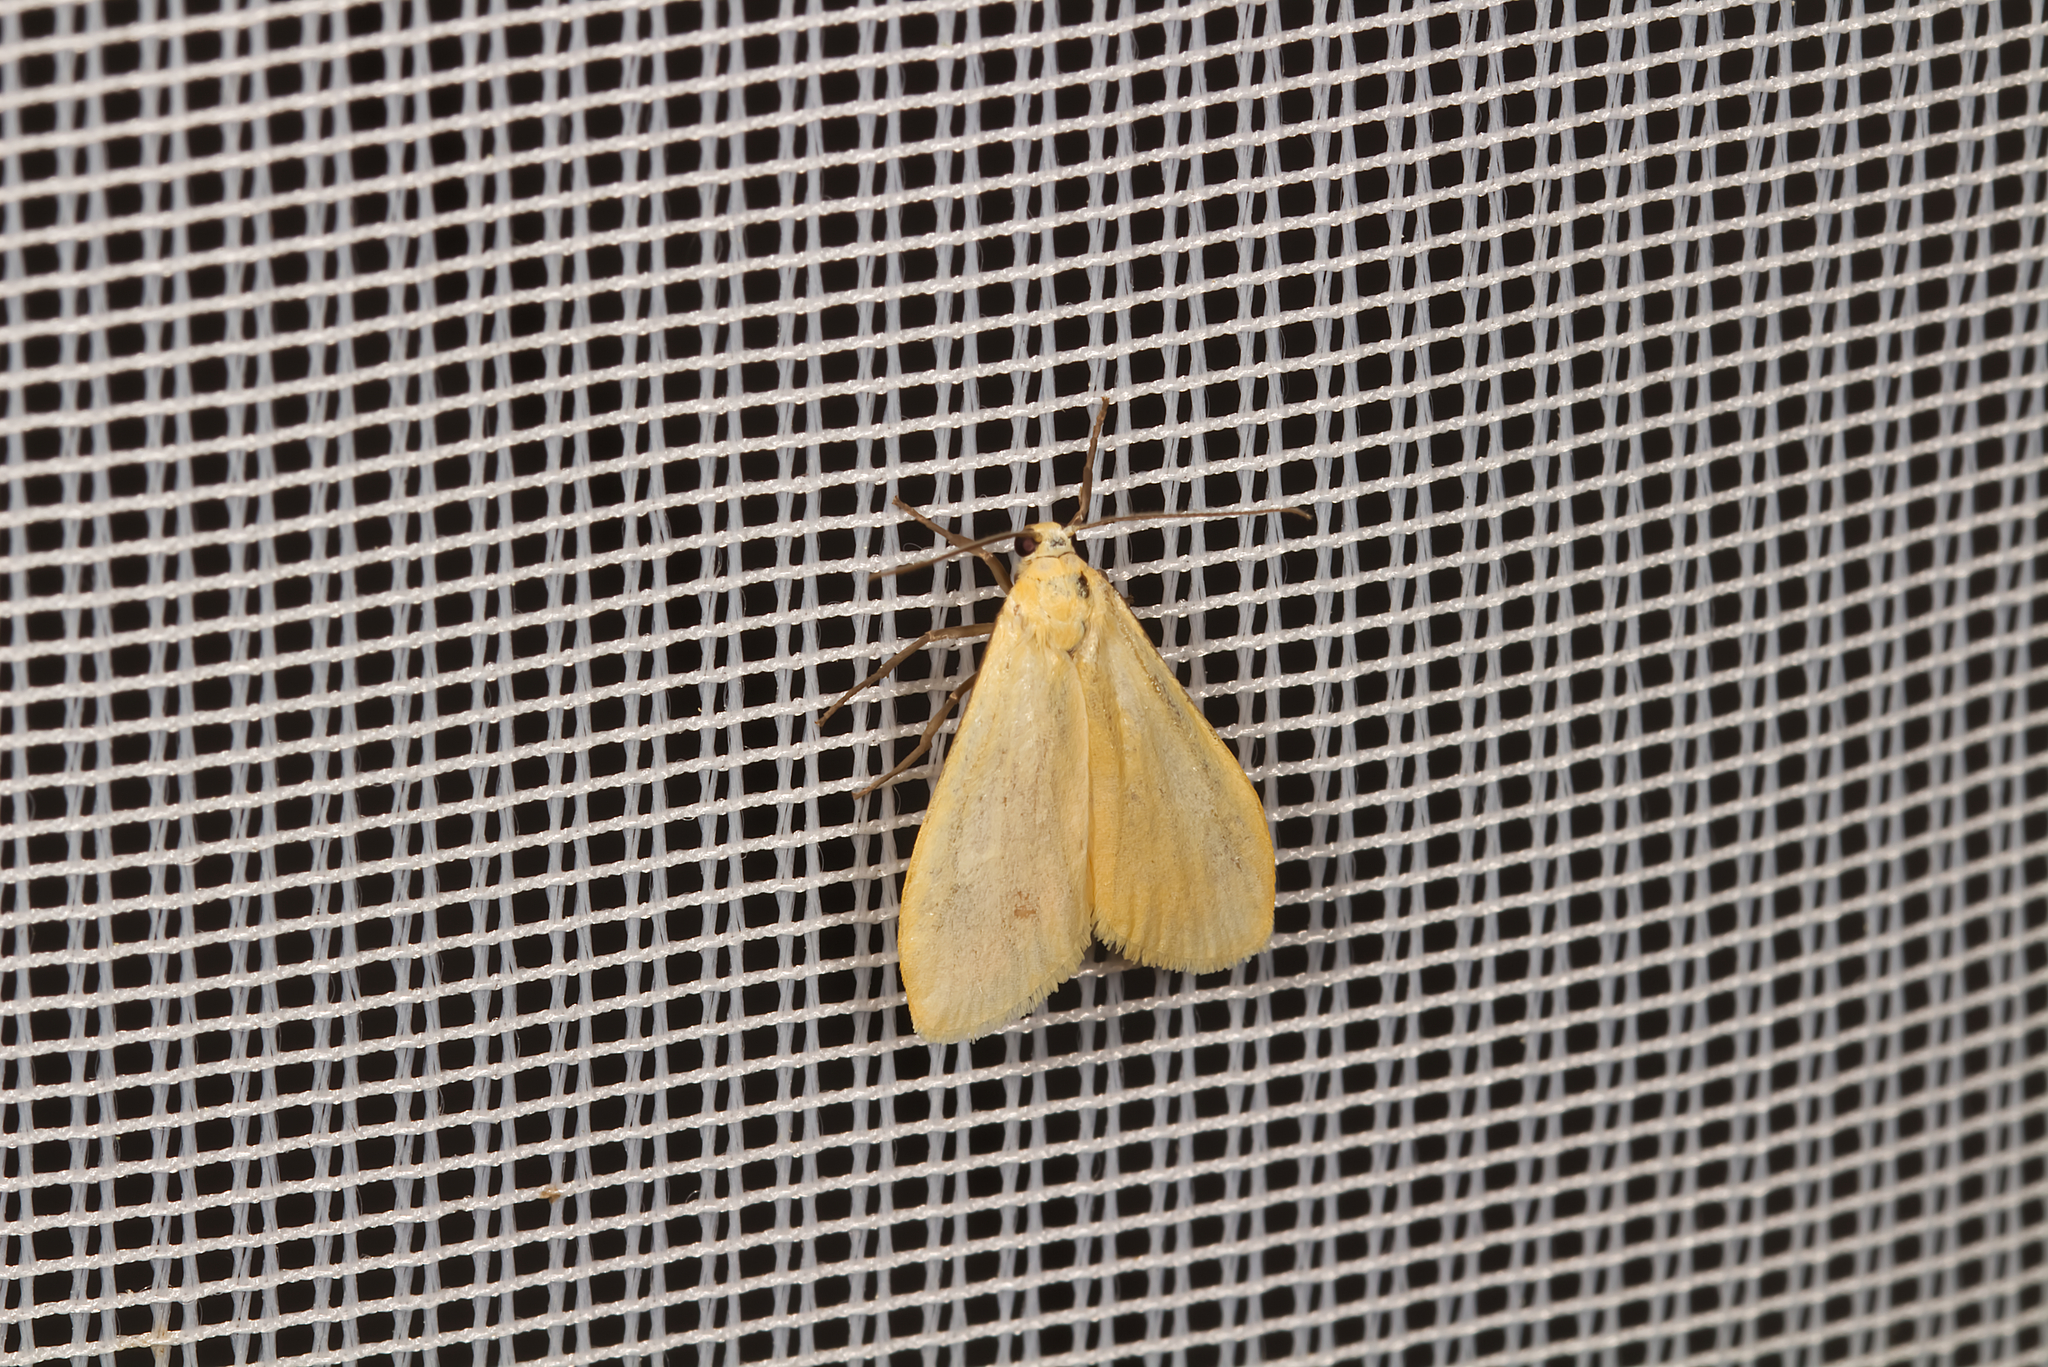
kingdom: Animalia
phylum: Arthropoda
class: Insecta
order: Lepidoptera
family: Erebidae
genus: Wittia
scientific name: Wittia sororcula
